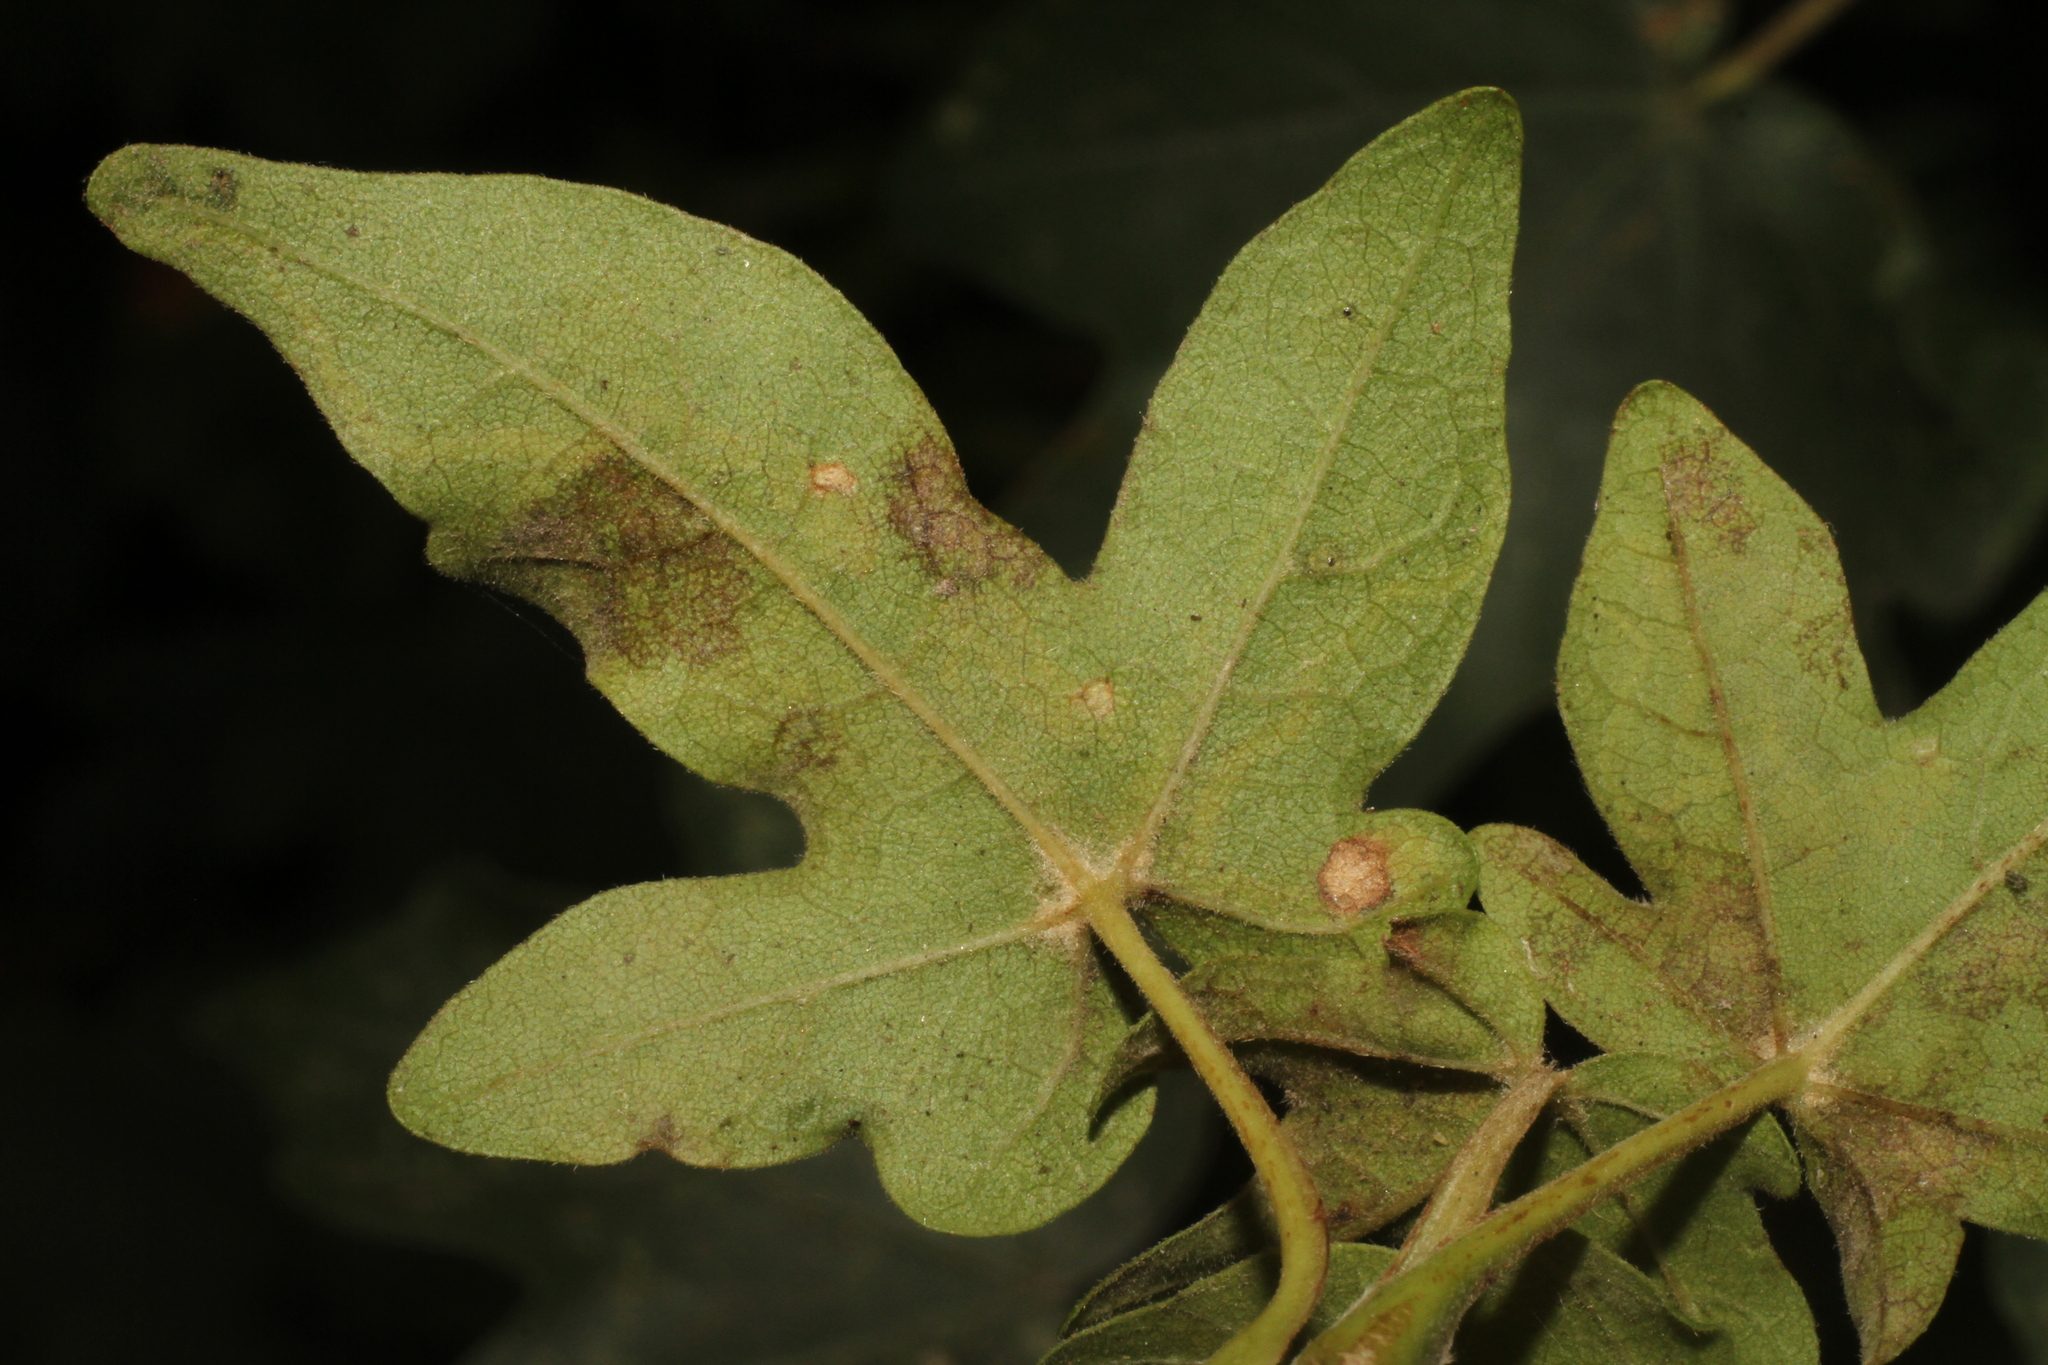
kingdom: Animalia
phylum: Arthropoda
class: Insecta
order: Lepidoptera
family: Nepticulidae
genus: Stigmella
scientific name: Stigmella aceris
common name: Scarce maple pigmy
